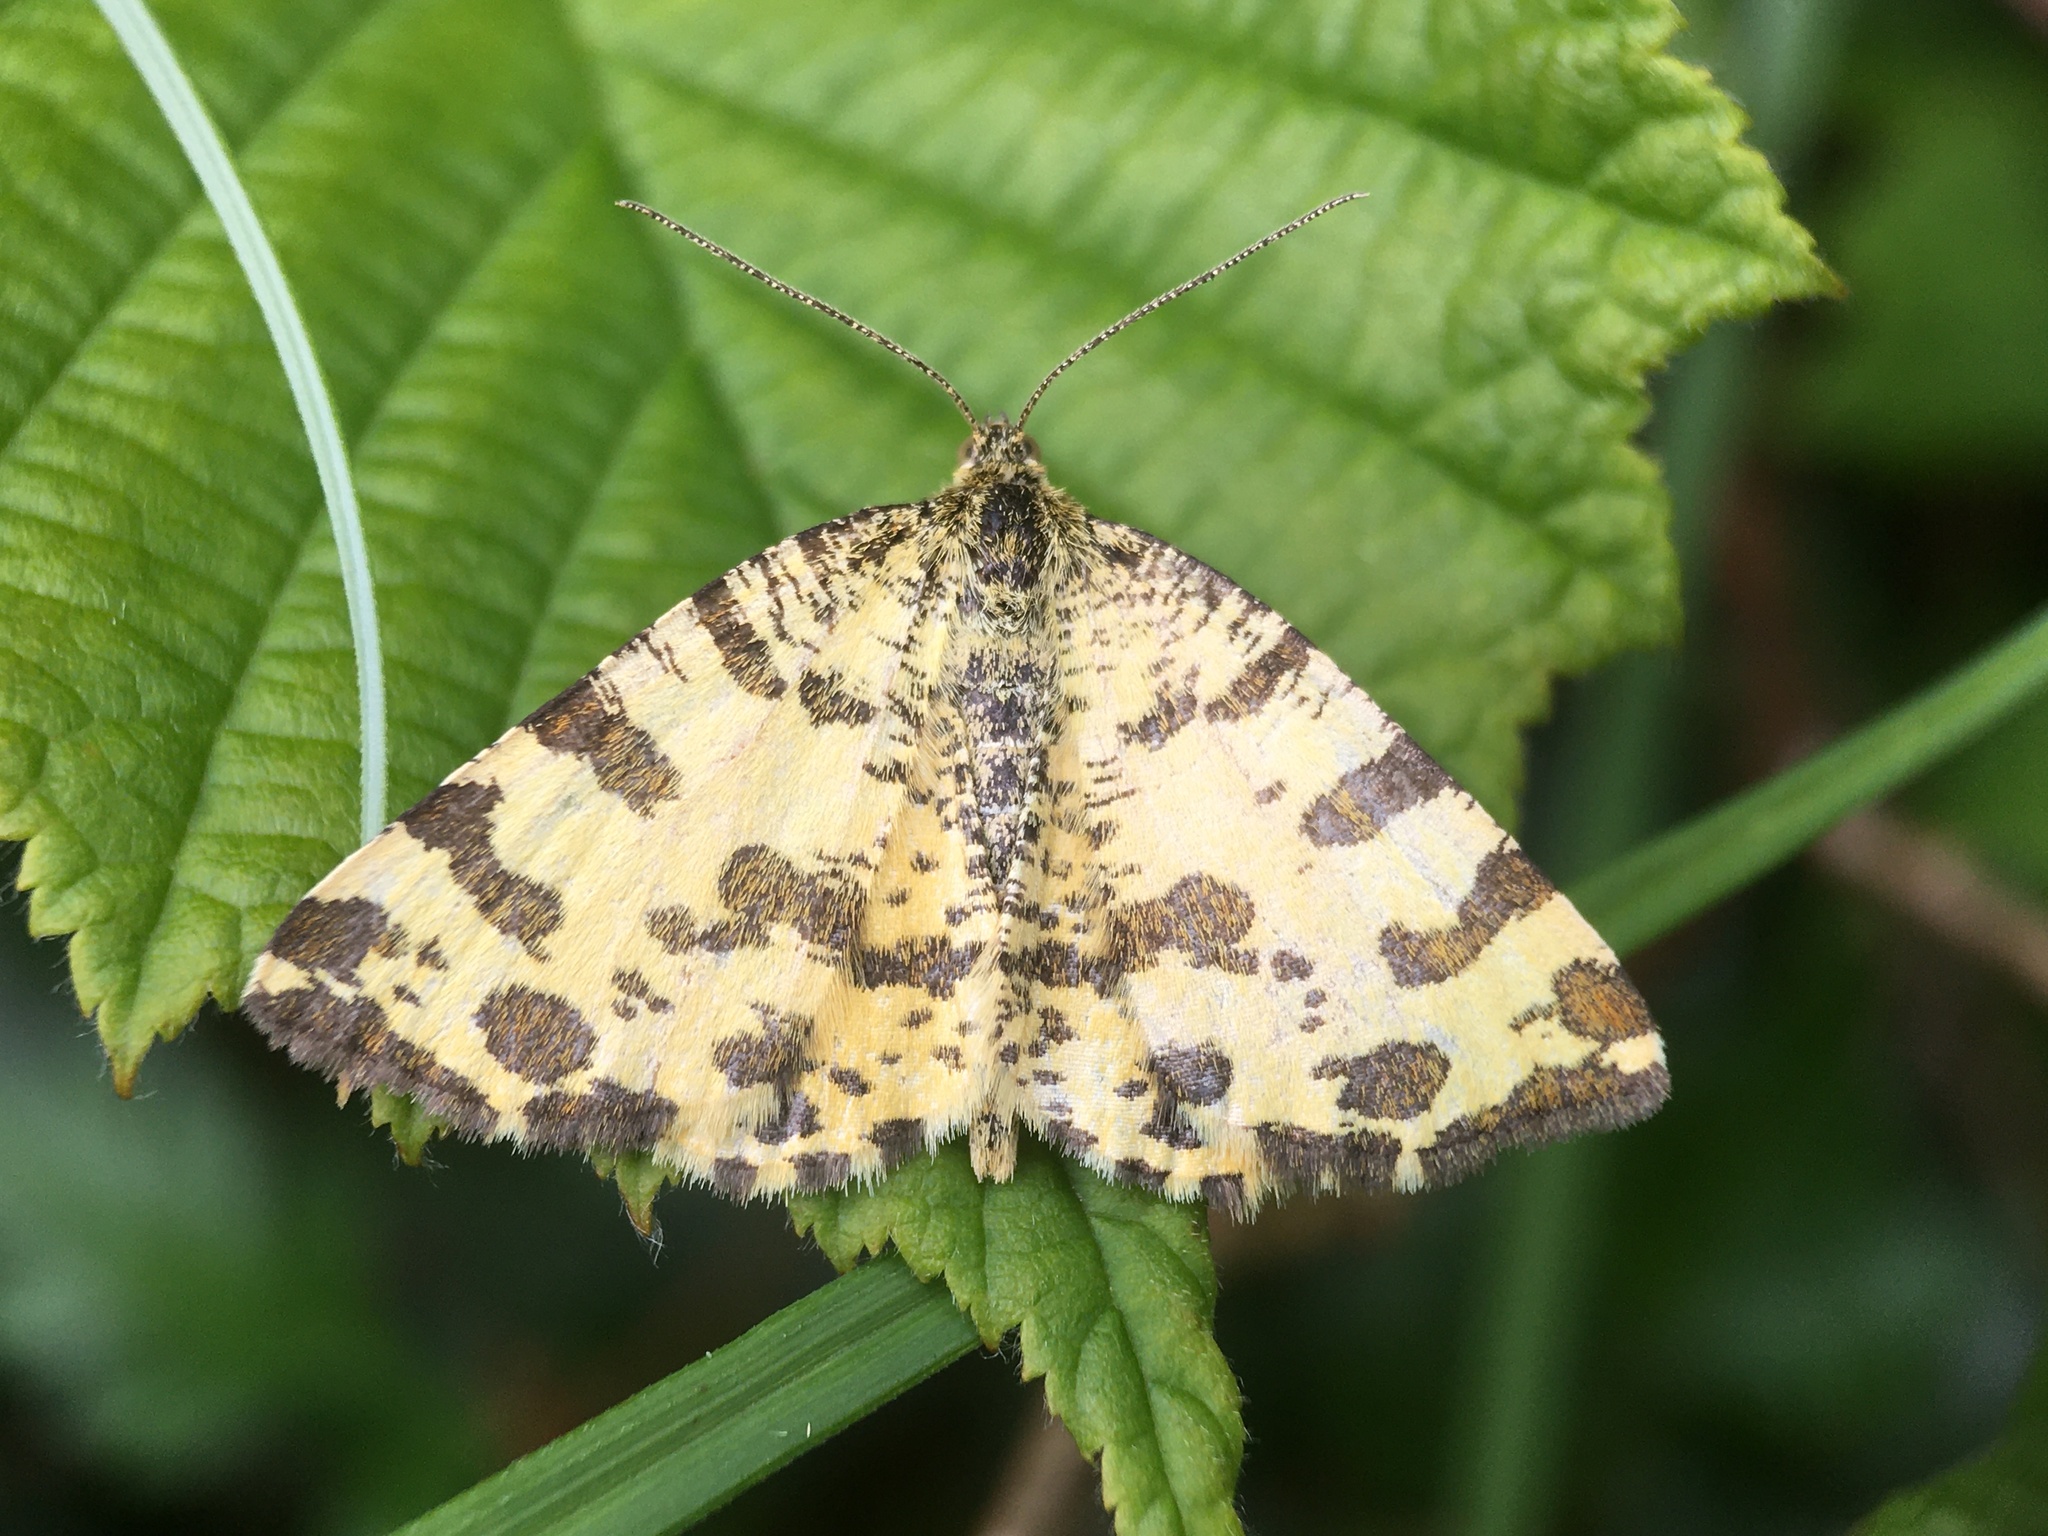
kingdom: Animalia
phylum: Arthropoda
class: Insecta
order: Lepidoptera
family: Geometridae
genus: Pseudopanthera
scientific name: Pseudopanthera macularia
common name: Speckled yellow
